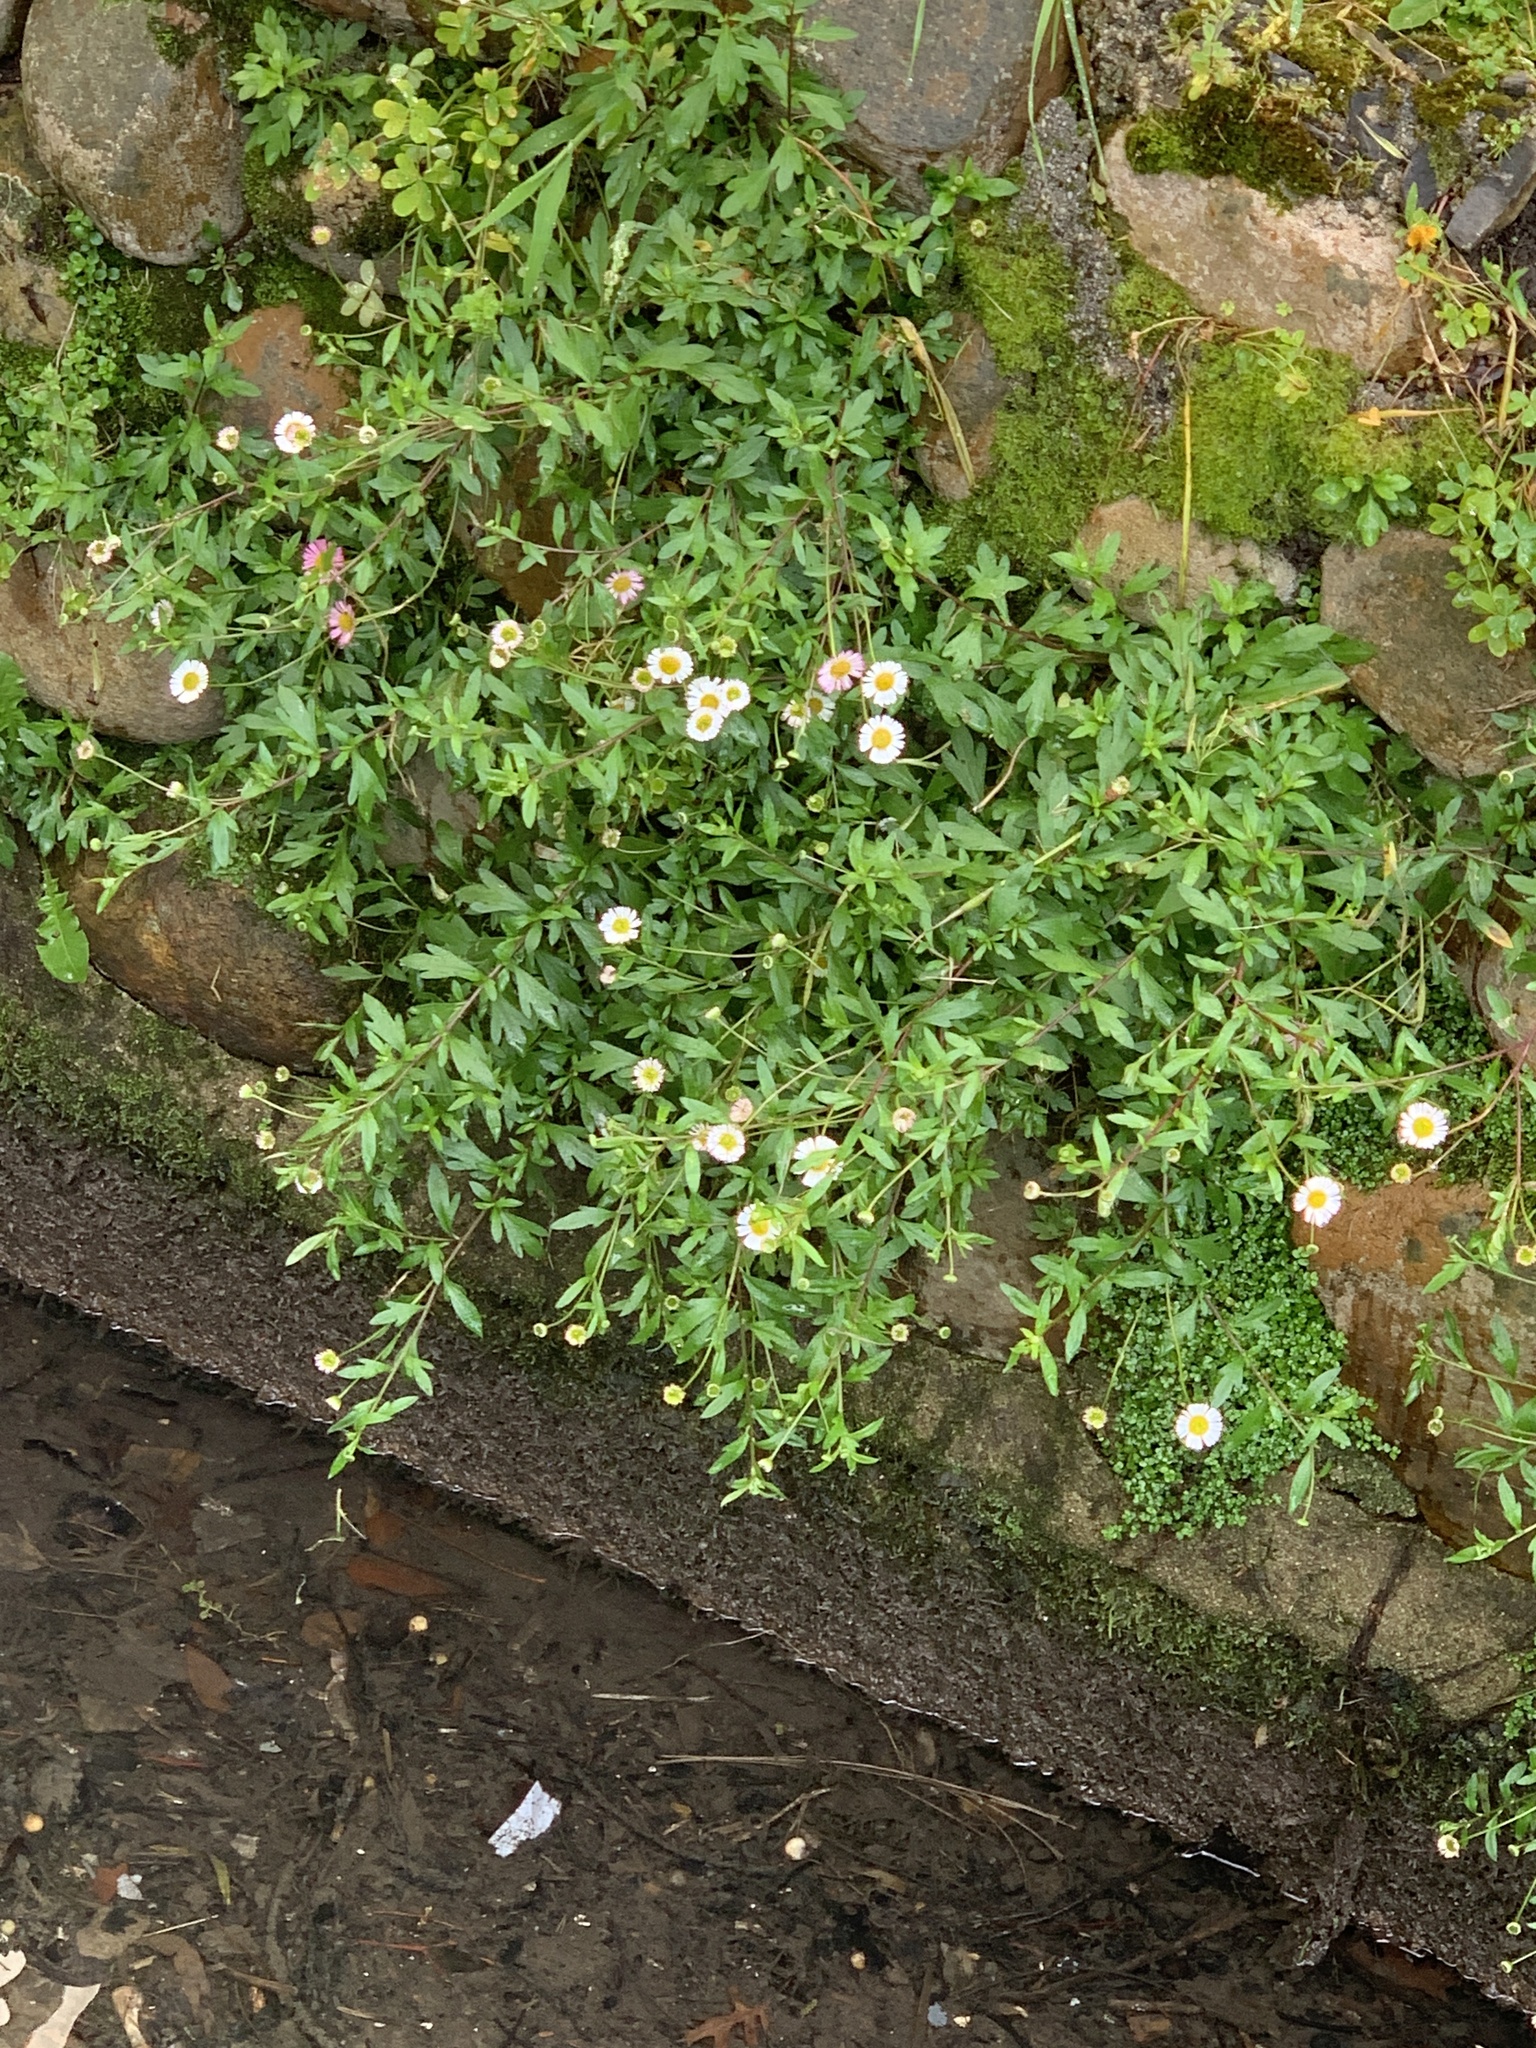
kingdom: Plantae
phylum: Tracheophyta
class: Magnoliopsida
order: Asterales
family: Asteraceae
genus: Erigeron
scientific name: Erigeron karvinskianus
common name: Mexican fleabane
